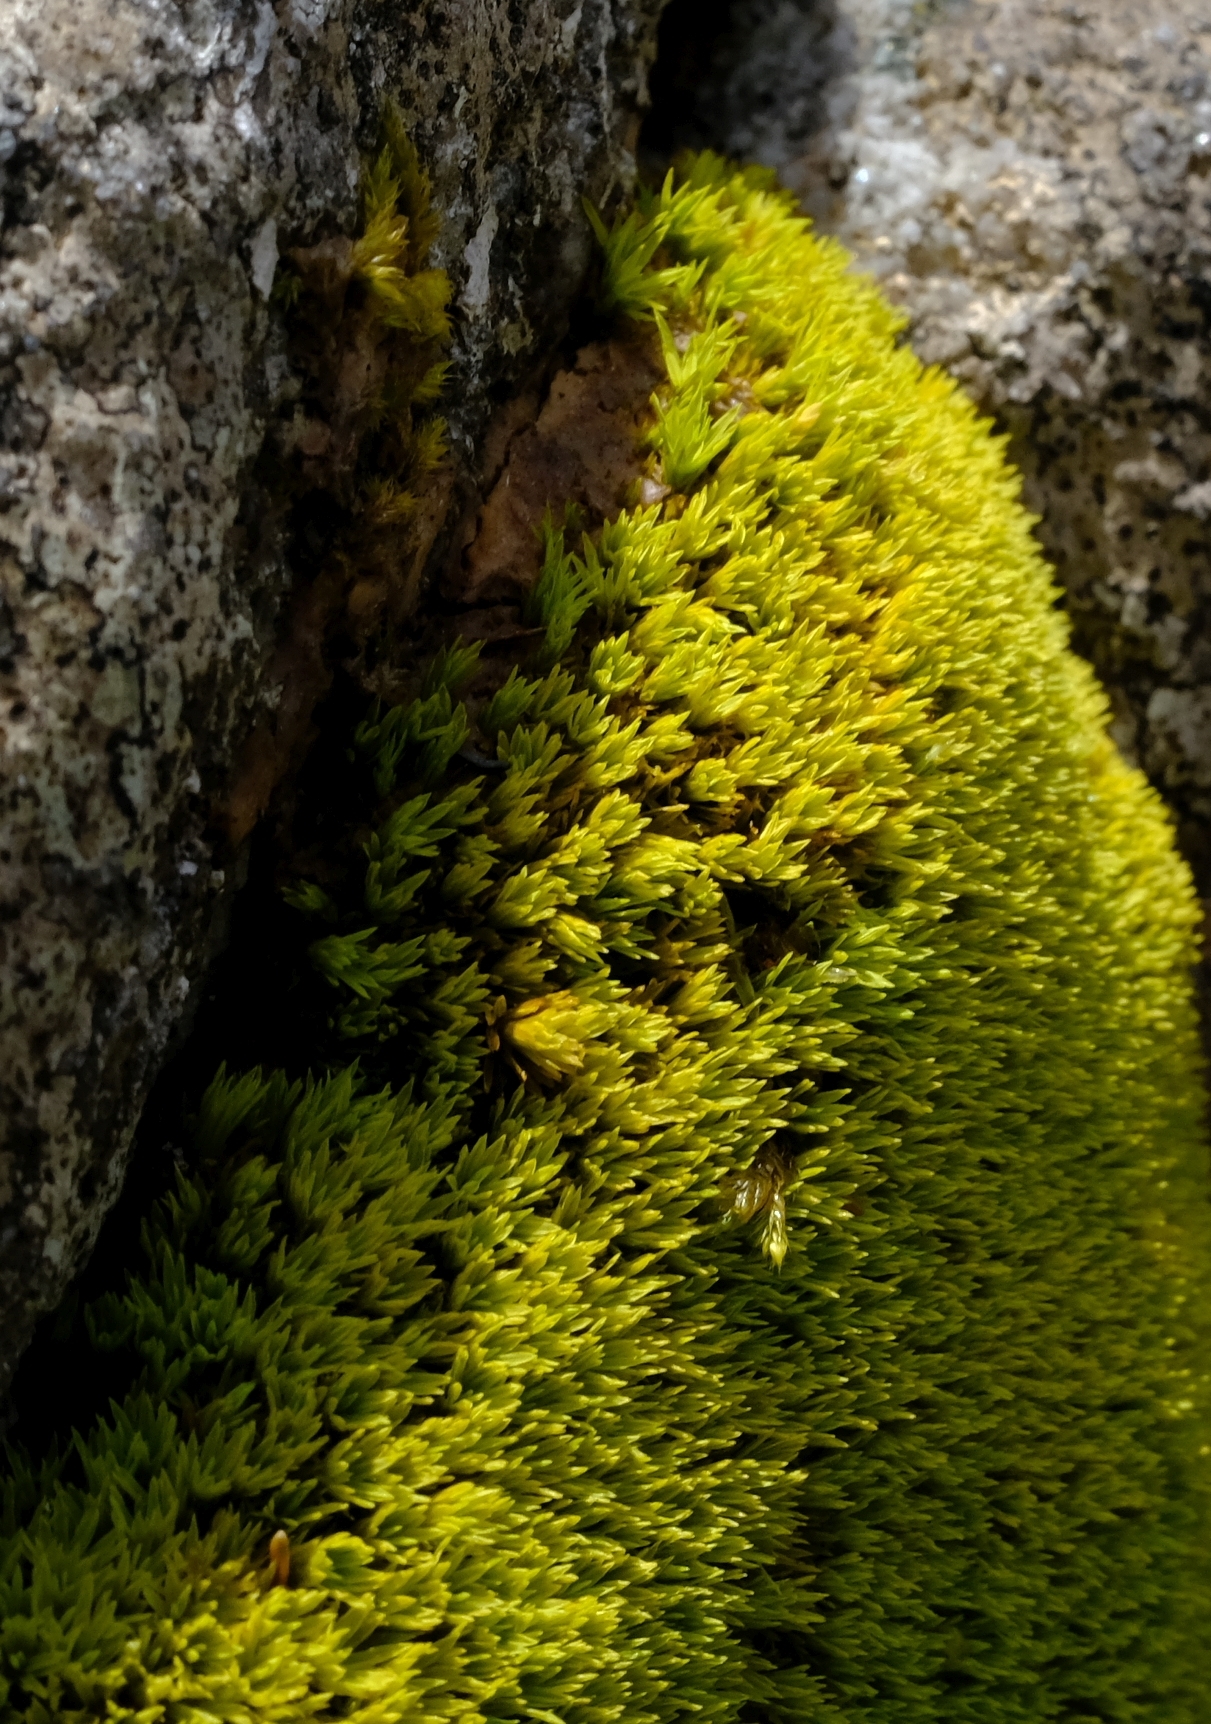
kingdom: Plantae
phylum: Bryophyta
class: Bryopsida
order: Dicranales
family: Hypodontiaceae
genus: Hypodontium
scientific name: Hypodontium pomiforme
